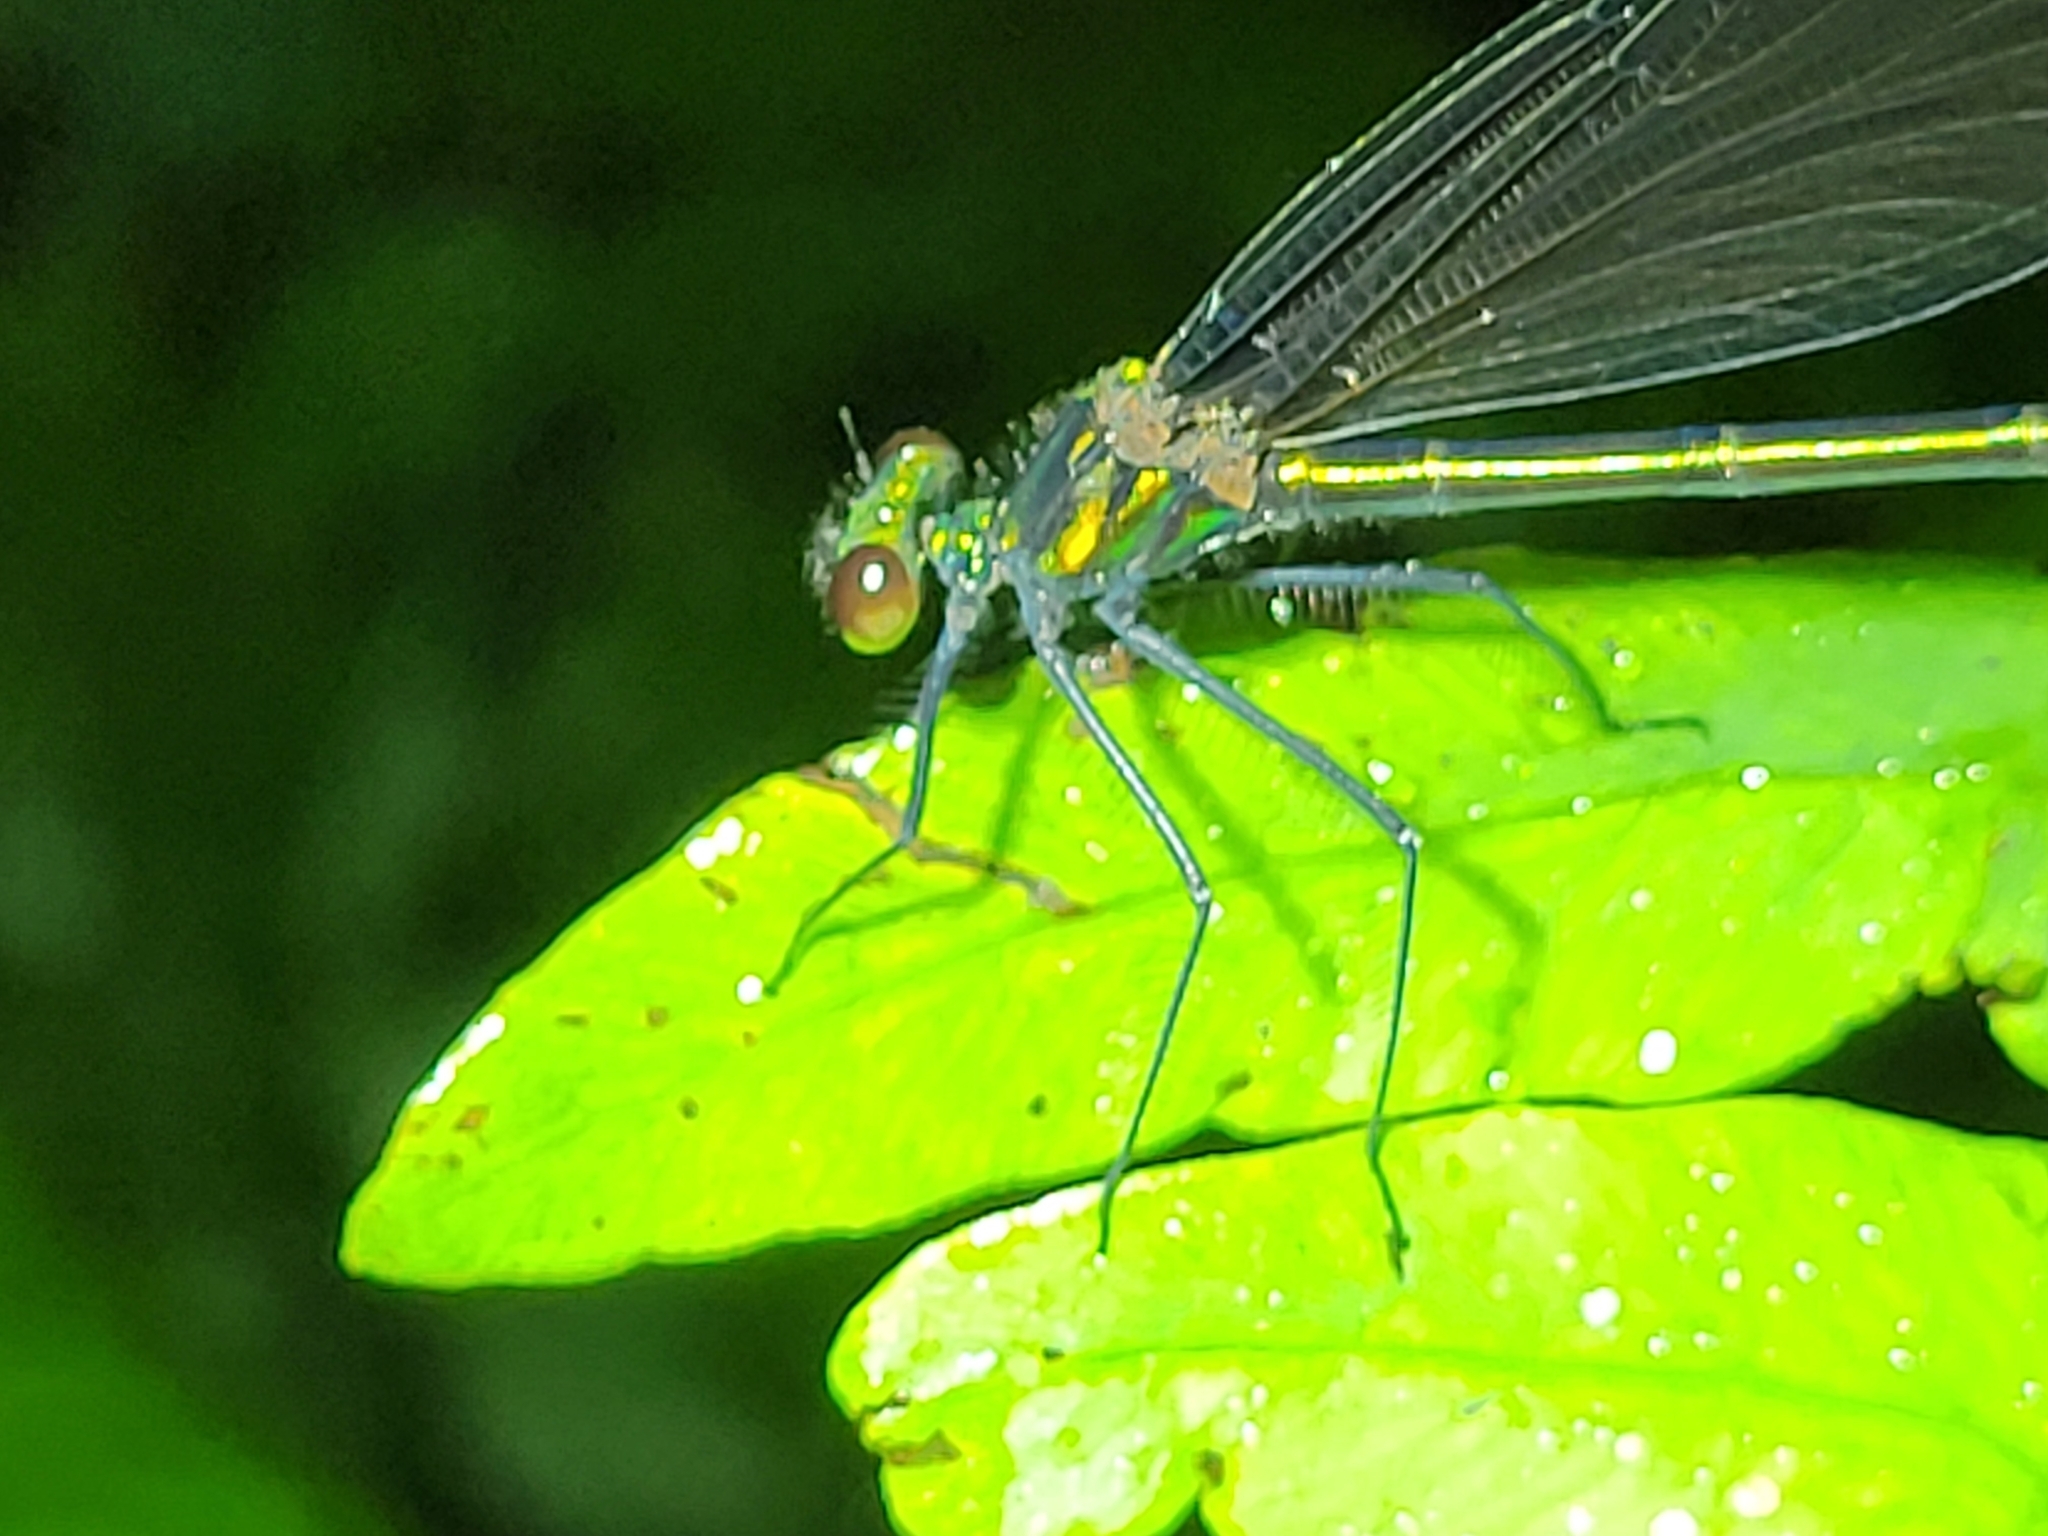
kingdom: Animalia
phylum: Arthropoda
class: Insecta
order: Odonata
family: Calopterygidae
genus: Calopteryx
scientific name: Calopteryx maculata
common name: Ebony jewelwing
